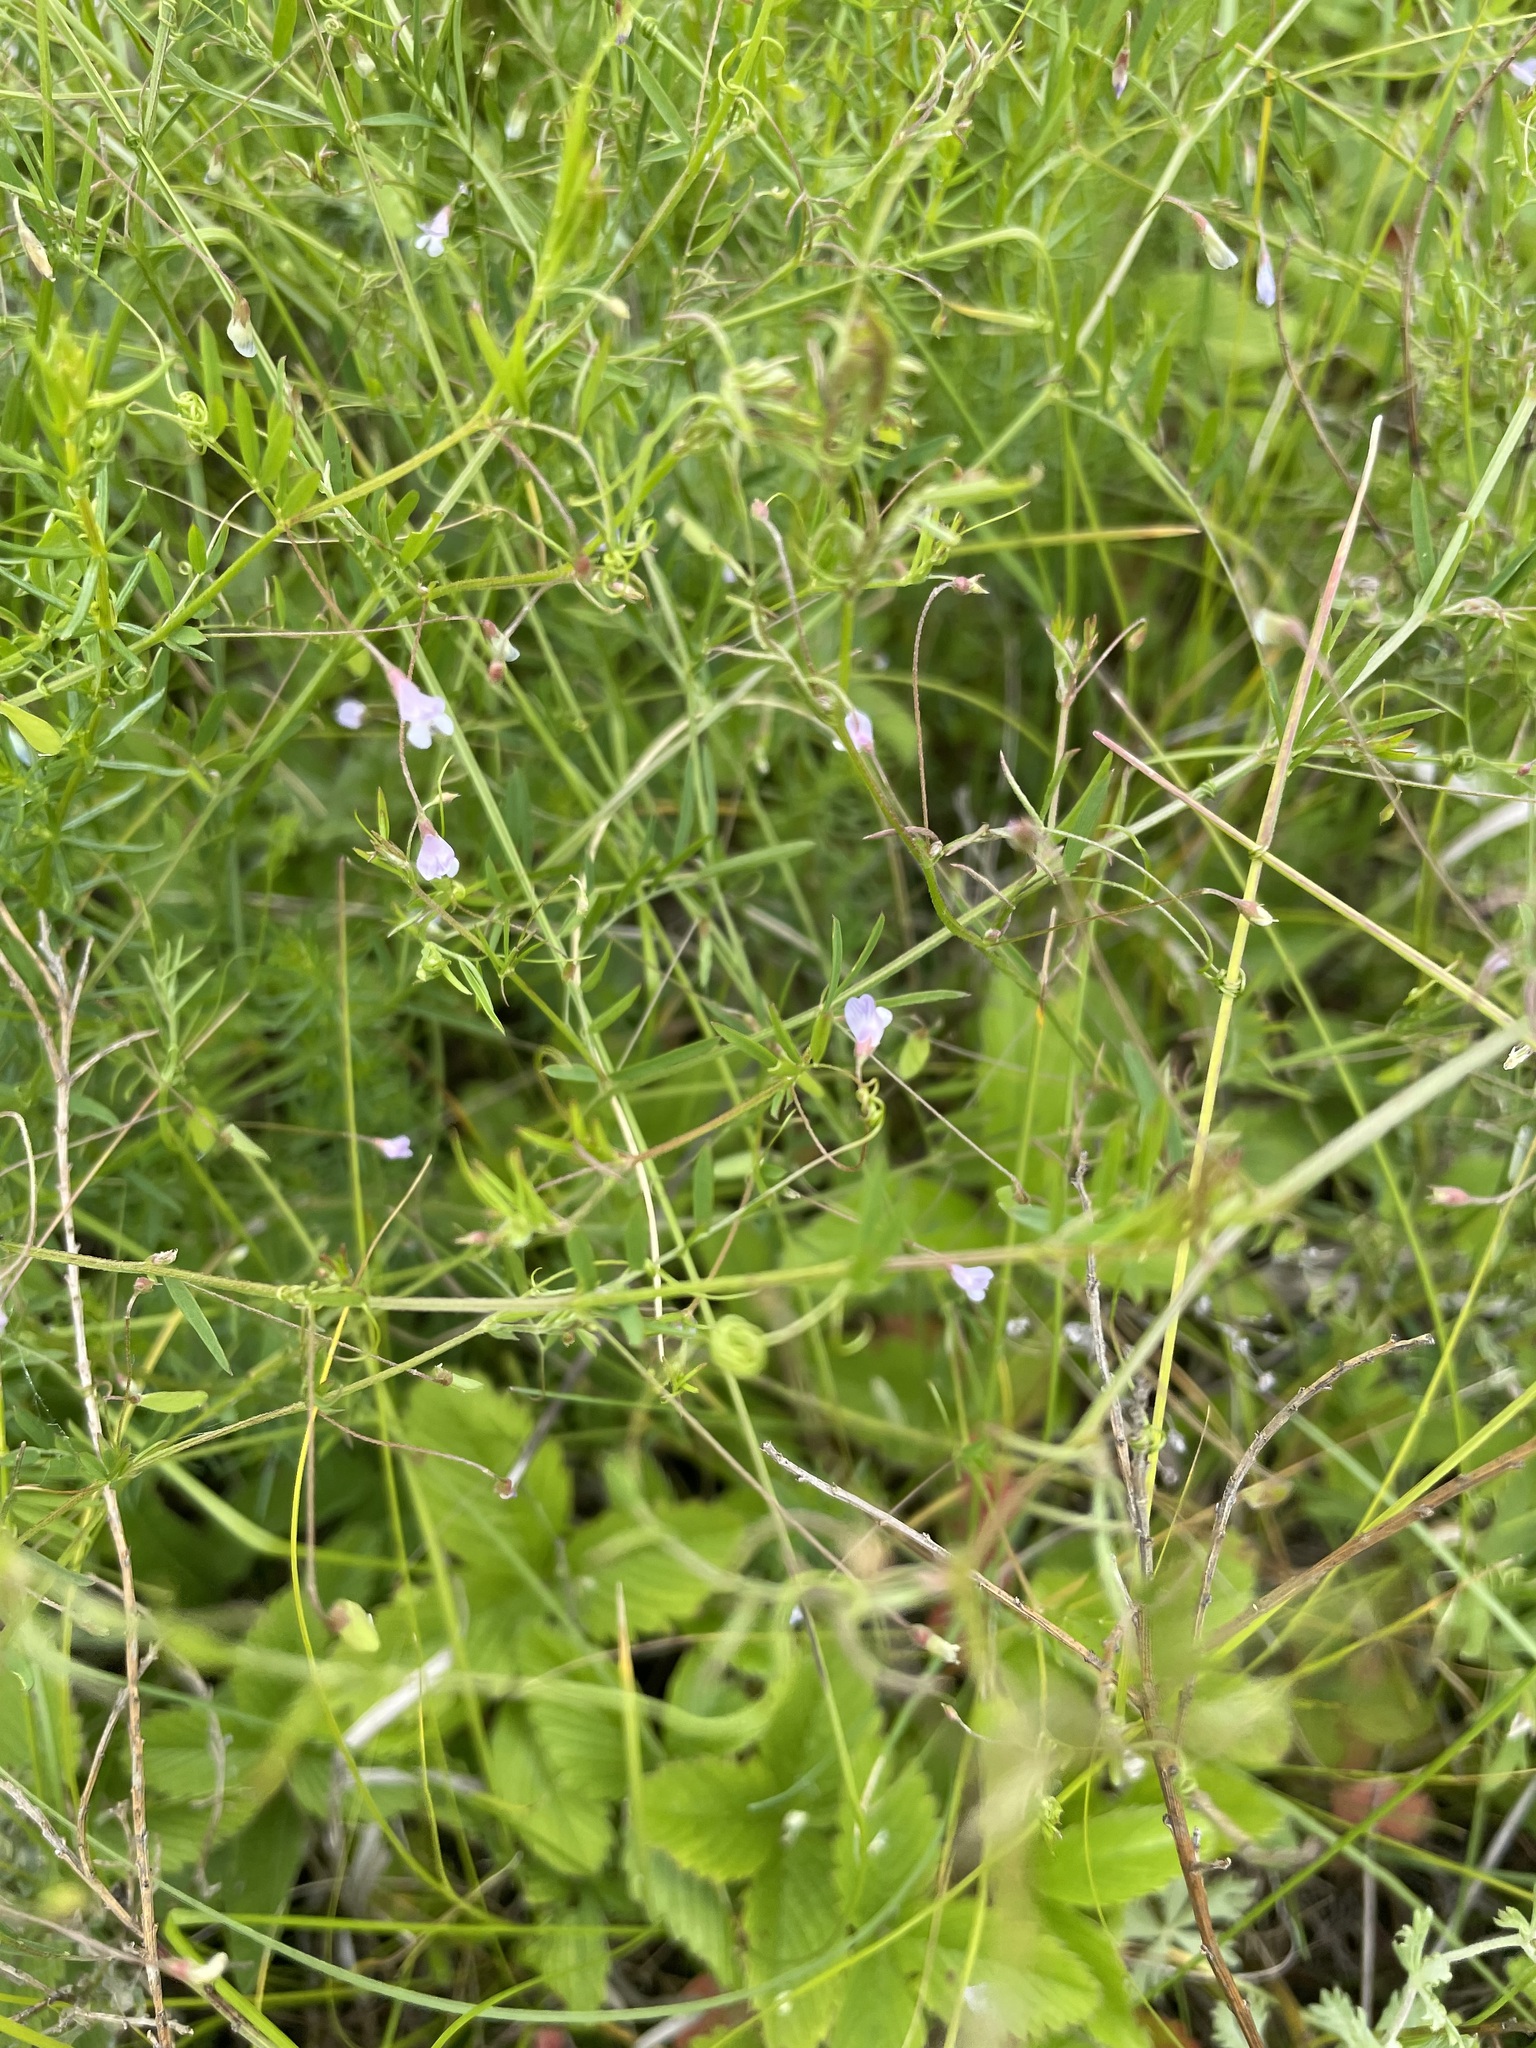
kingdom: Plantae
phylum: Tracheophyta
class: Magnoliopsida
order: Fabales
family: Fabaceae
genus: Vicia
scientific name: Vicia tetrasperma
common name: Smooth tare
